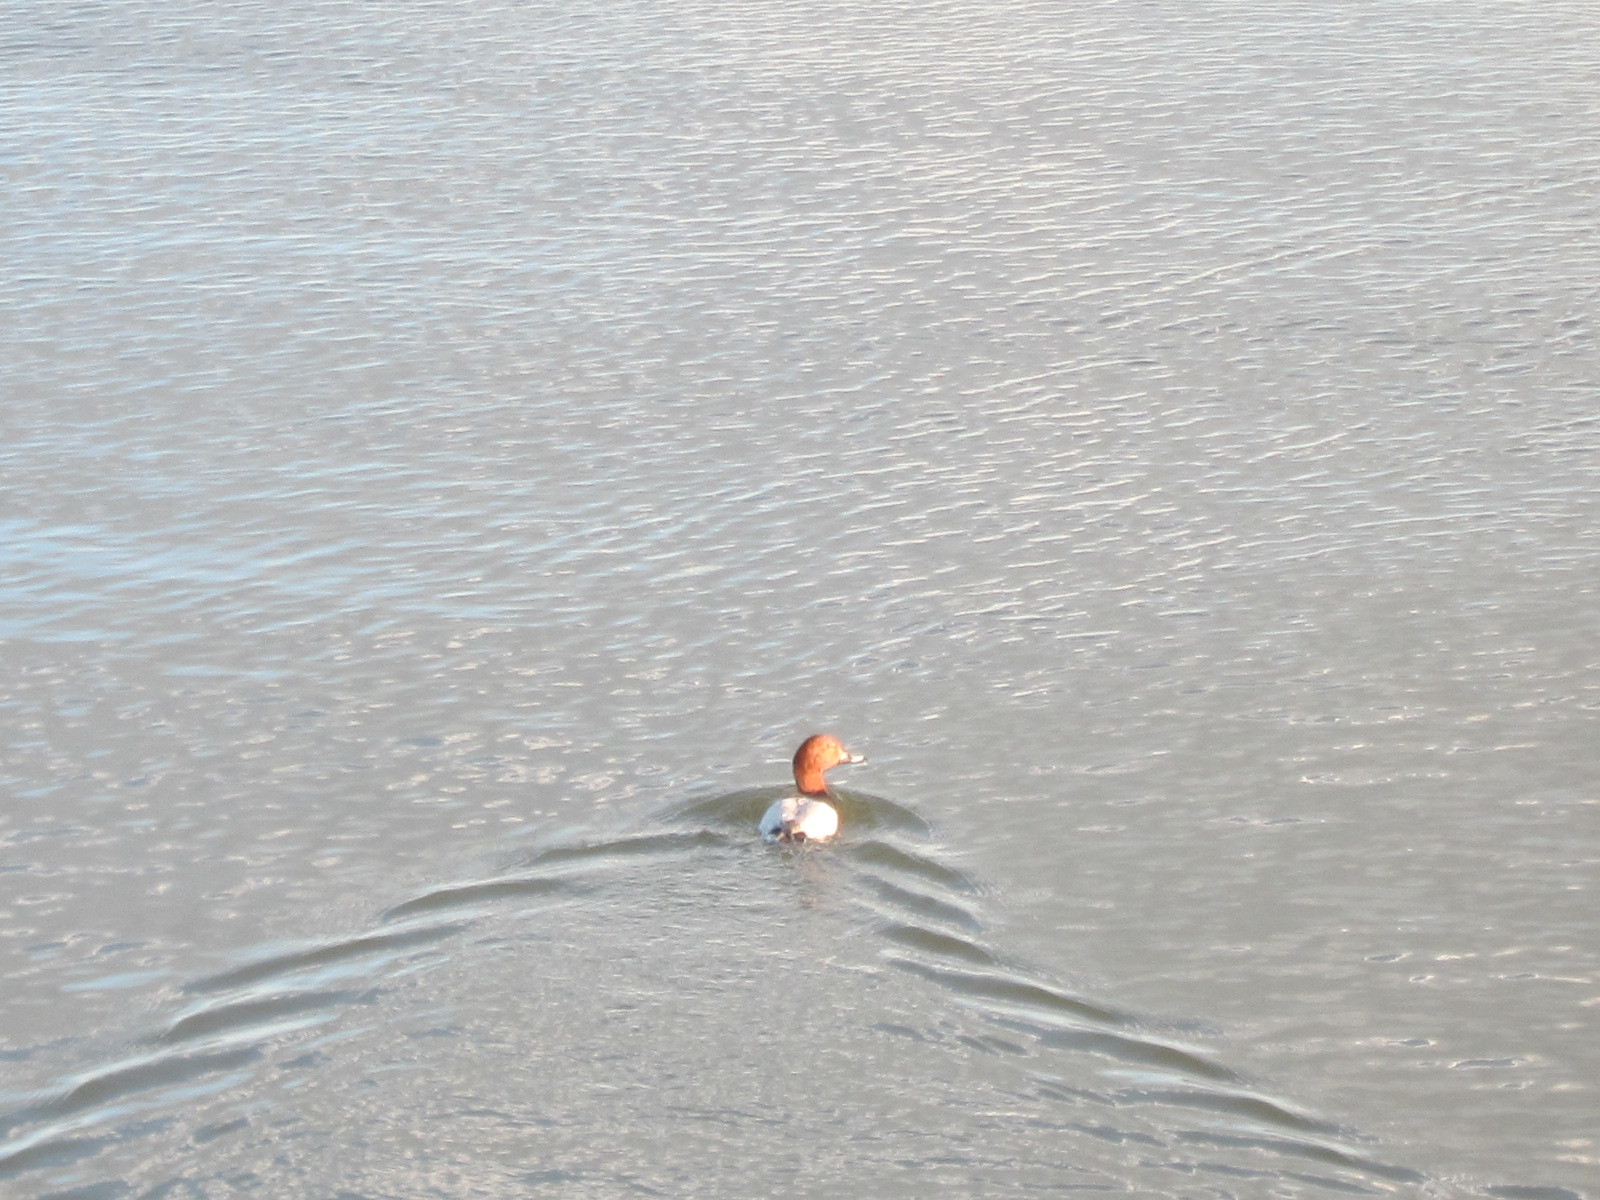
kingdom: Animalia
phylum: Chordata
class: Aves
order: Anseriformes
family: Anatidae
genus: Aythya
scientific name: Aythya ferina
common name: Common pochard
